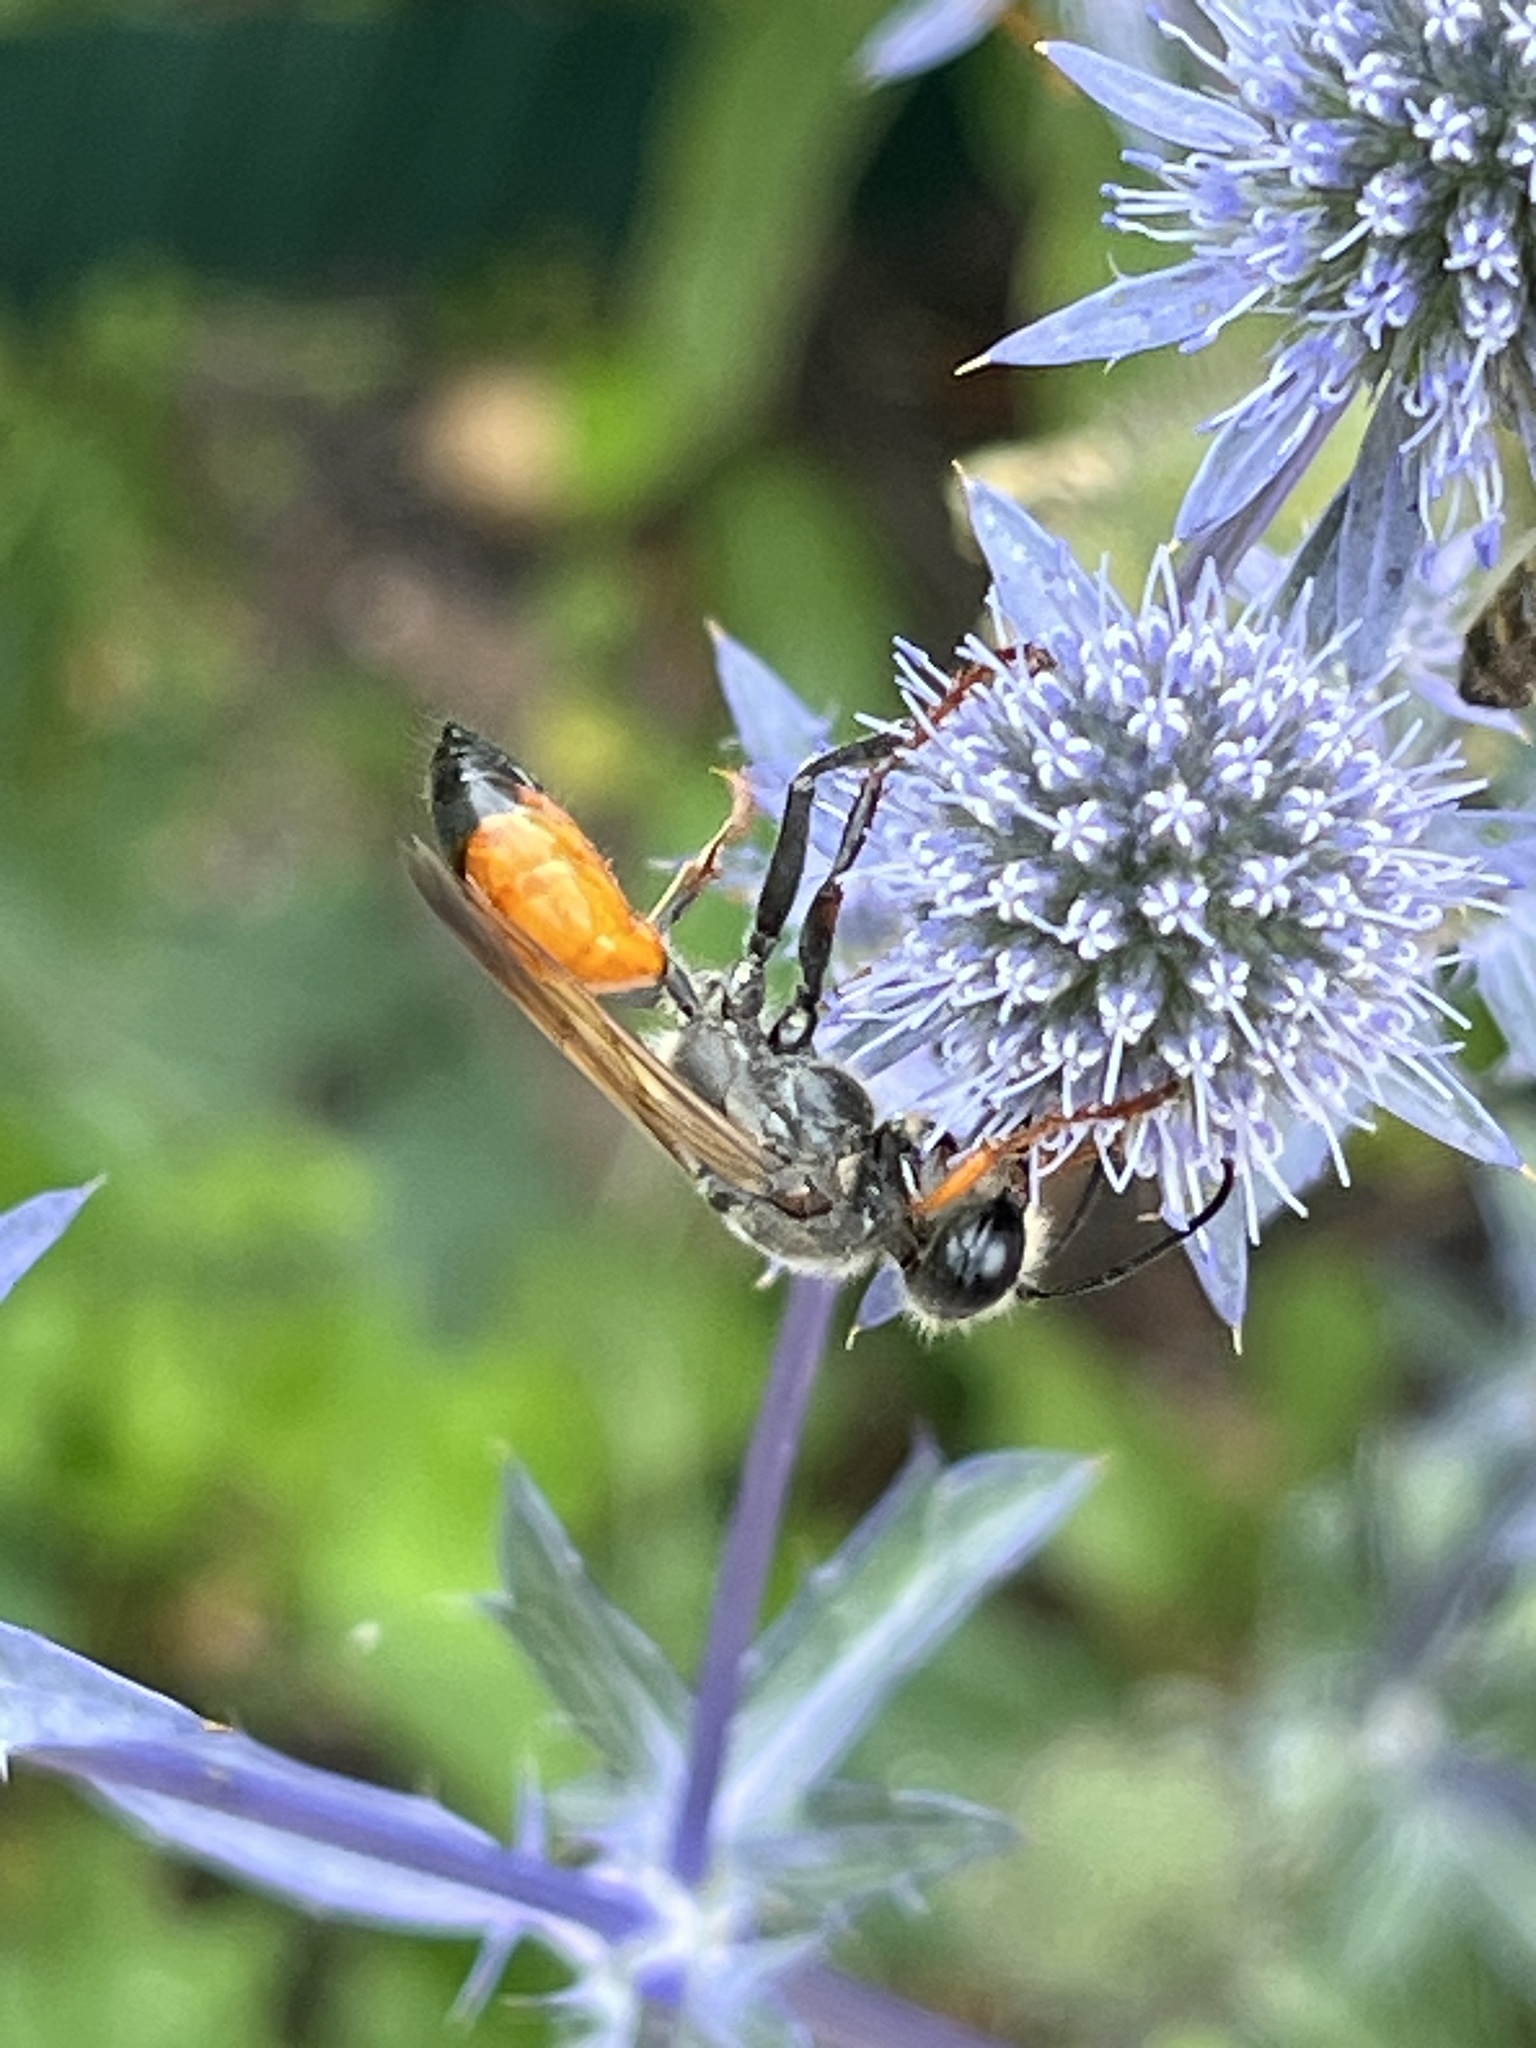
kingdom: Animalia
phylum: Arthropoda
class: Insecta
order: Hymenoptera
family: Sphecidae
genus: Sphex
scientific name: Sphex funerarius
